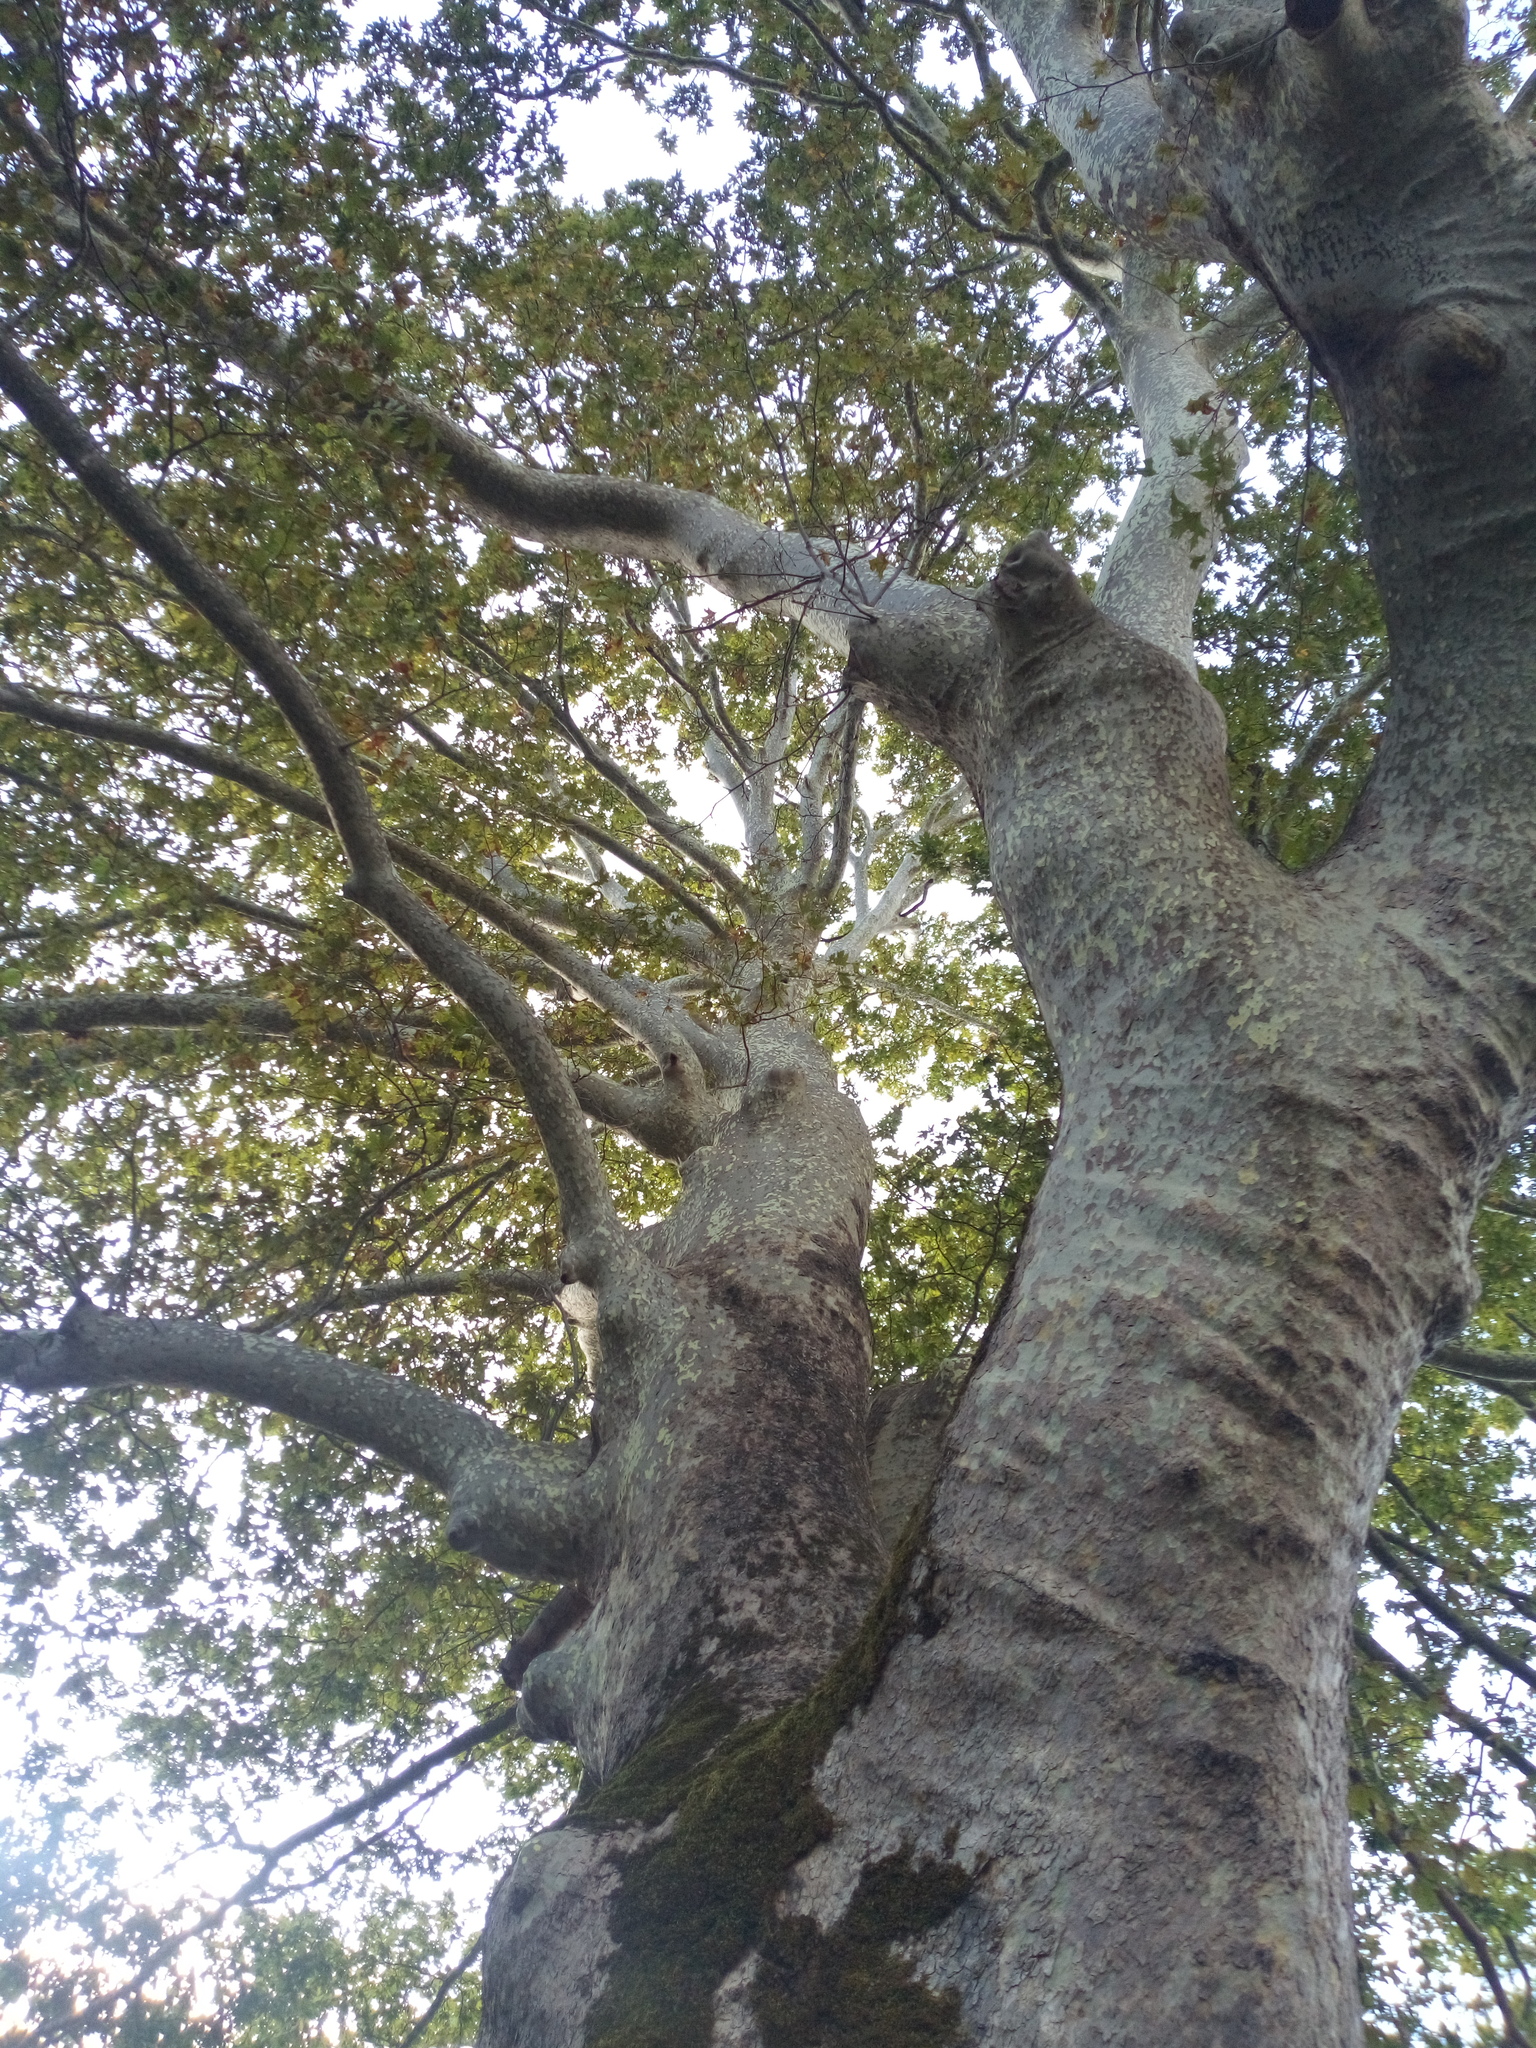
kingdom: Plantae
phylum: Tracheophyta
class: Magnoliopsida
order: Proteales
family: Platanaceae
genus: Platanus
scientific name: Platanus orientalis
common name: Oriental plane
